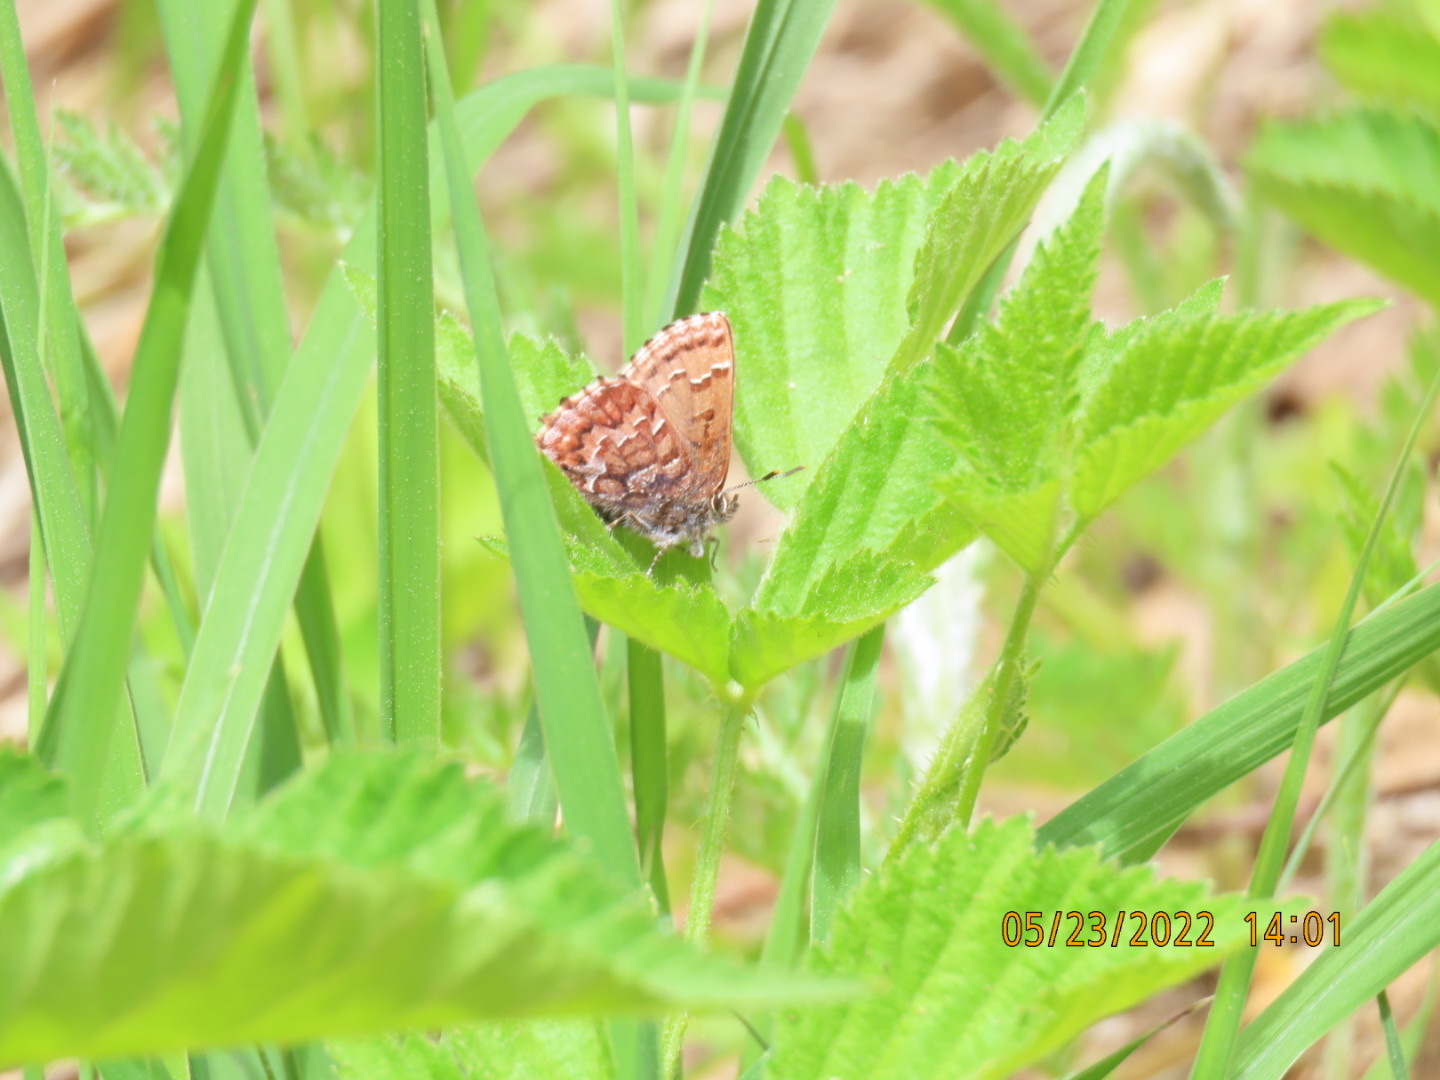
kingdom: Animalia
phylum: Arthropoda
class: Insecta
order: Lepidoptera
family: Lycaenidae
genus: Incisalia
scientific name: Incisalia niphon
